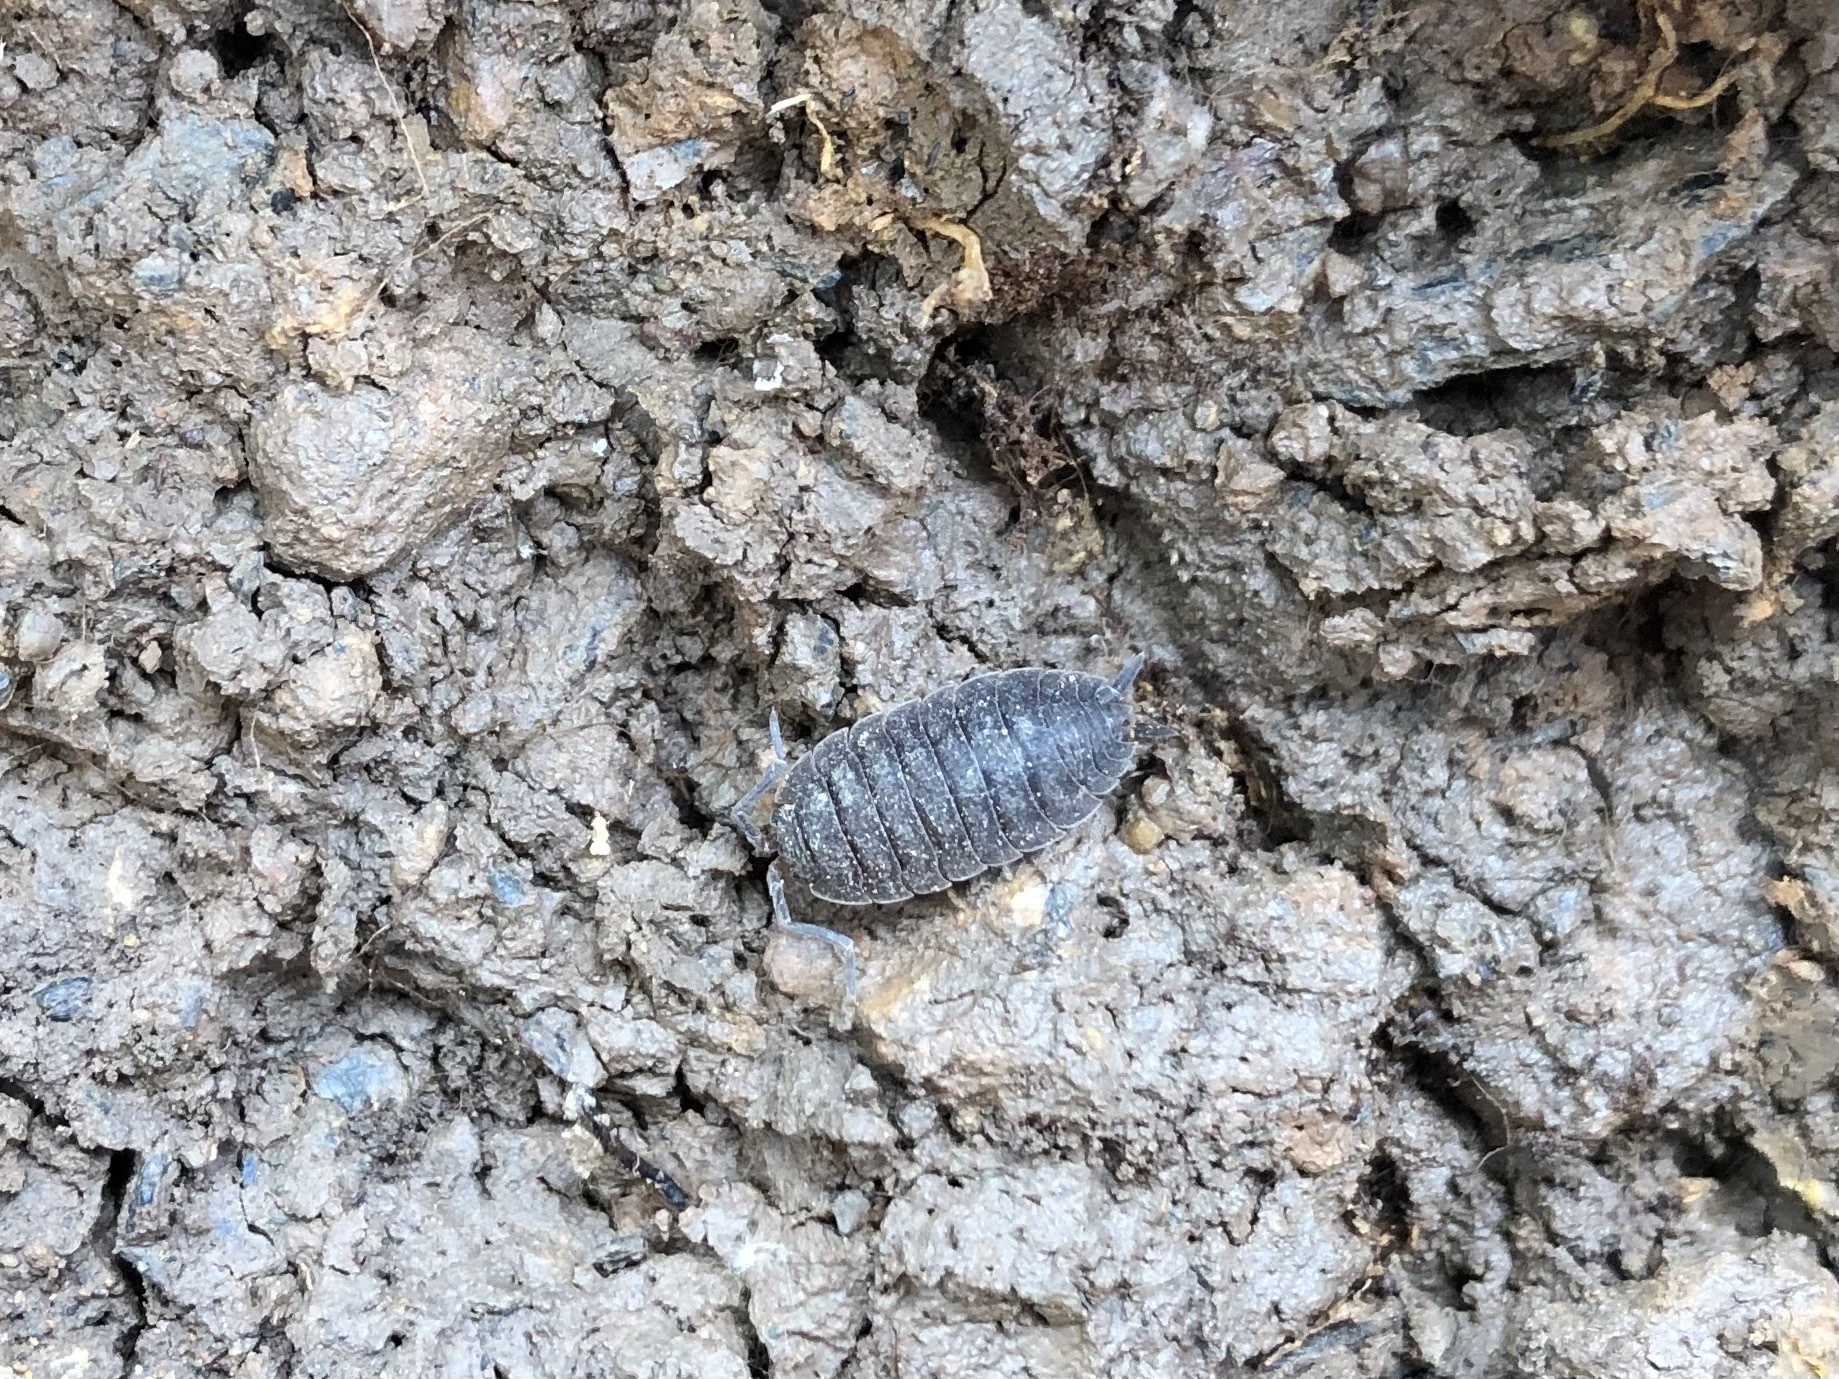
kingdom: Animalia
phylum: Arthropoda
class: Malacostraca
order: Isopoda
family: Porcellionidae
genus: Porcellio
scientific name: Porcellio scaber
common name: Common rough woodlouse
